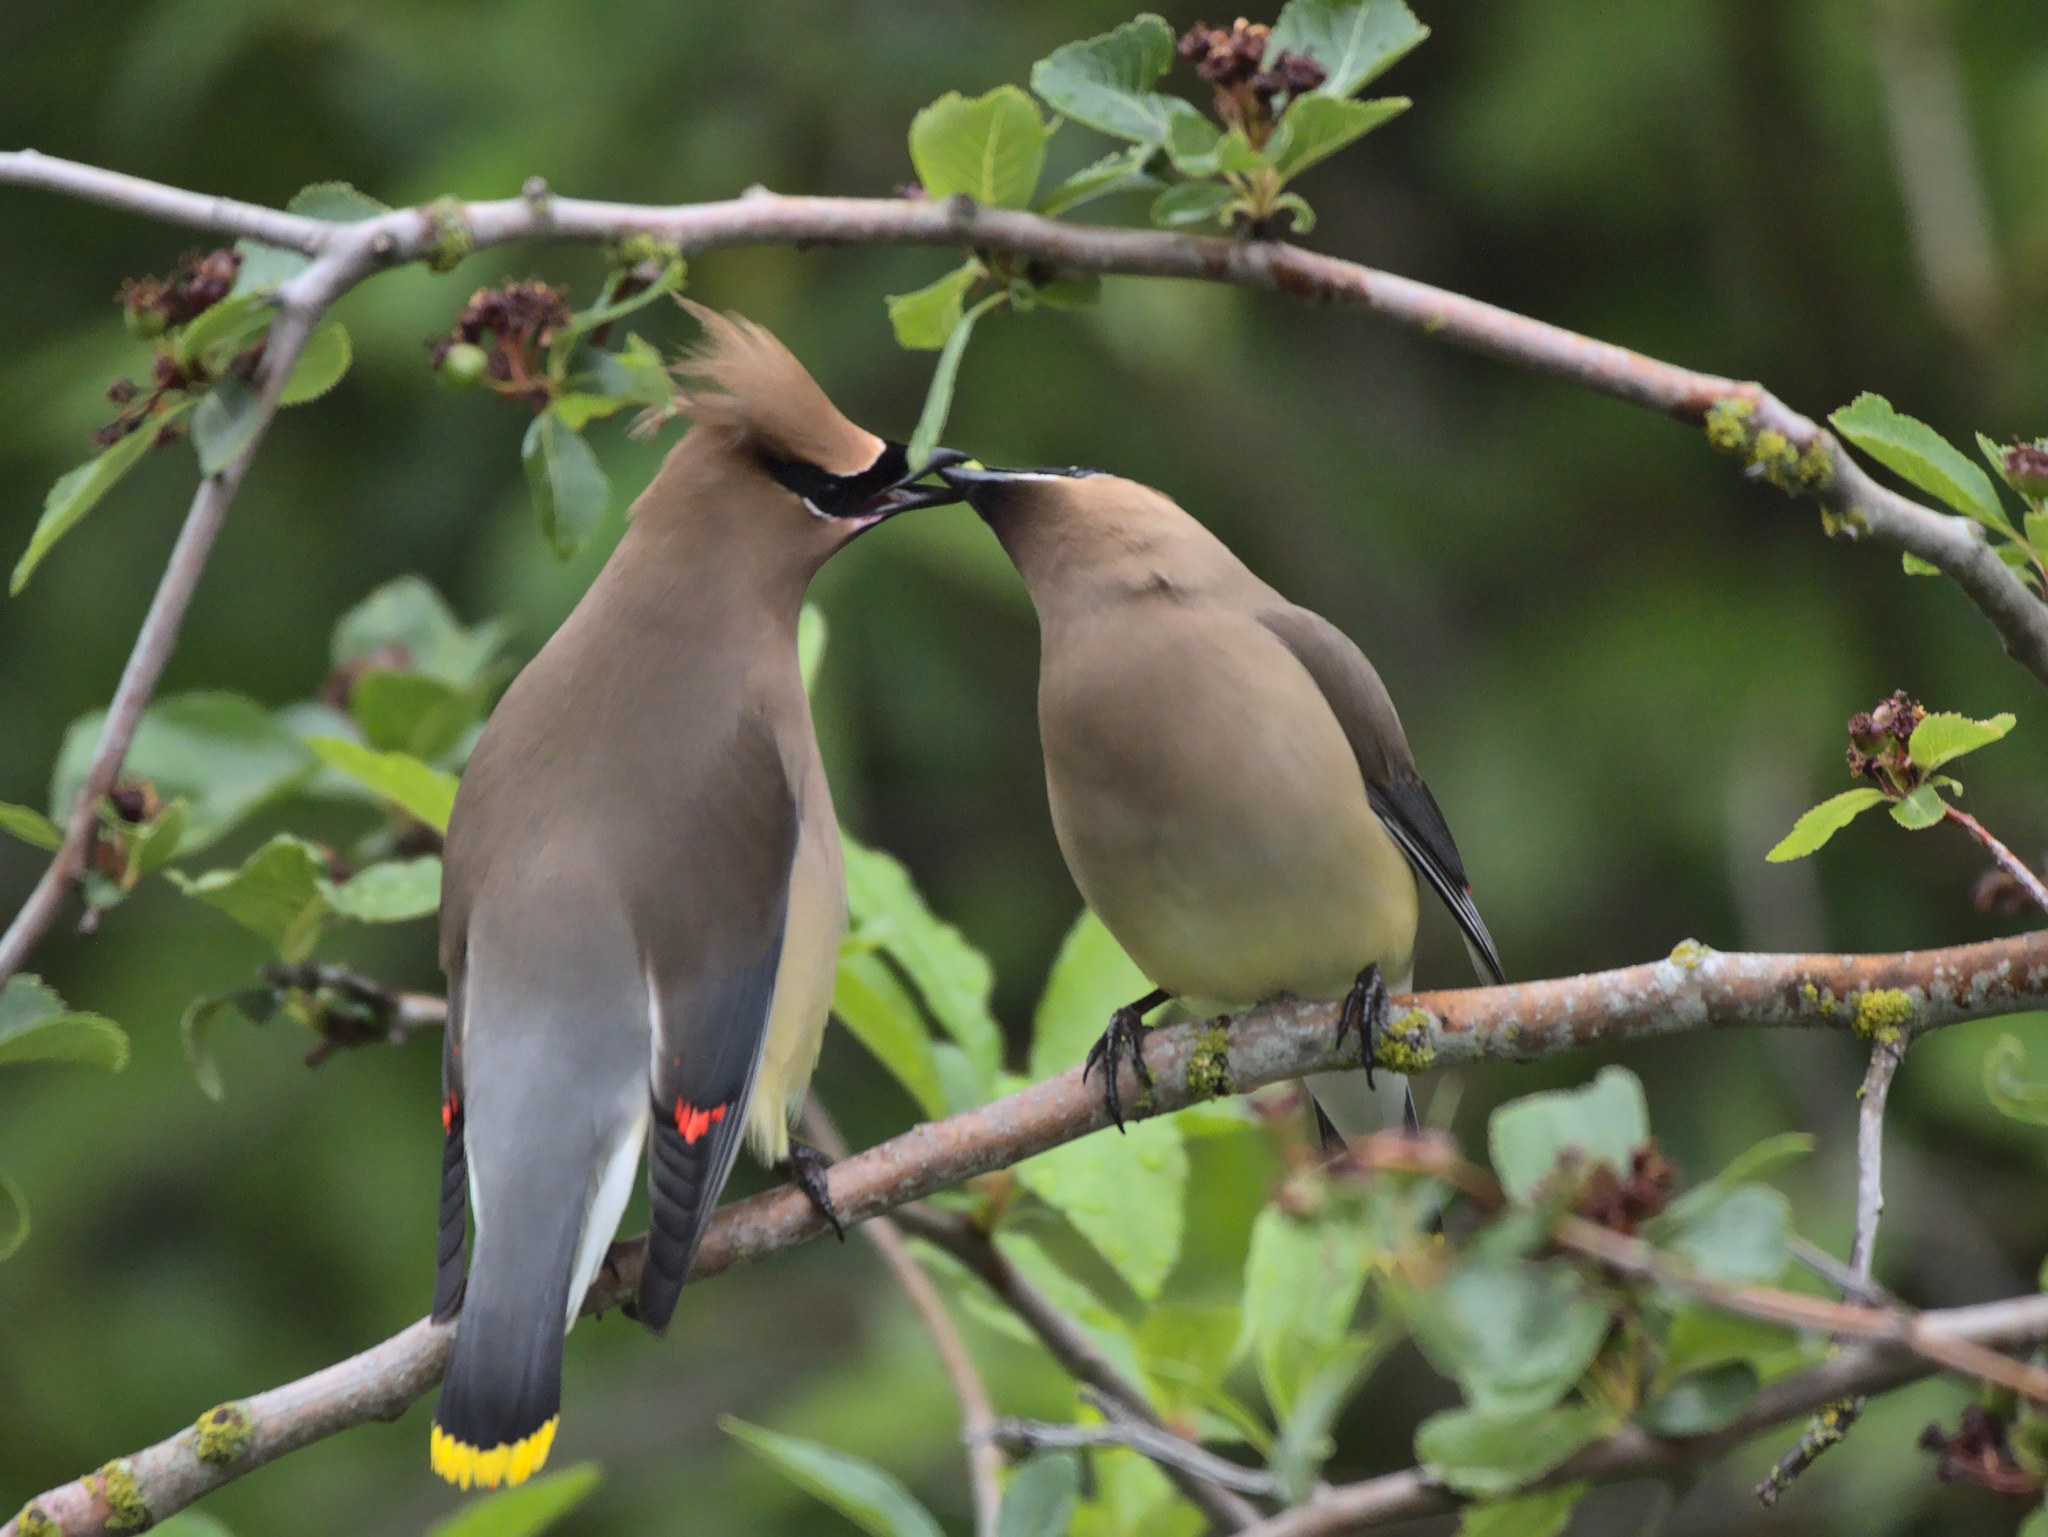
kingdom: Animalia
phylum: Chordata
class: Aves
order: Passeriformes
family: Bombycillidae
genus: Bombycilla
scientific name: Bombycilla cedrorum
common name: Cedar waxwing
